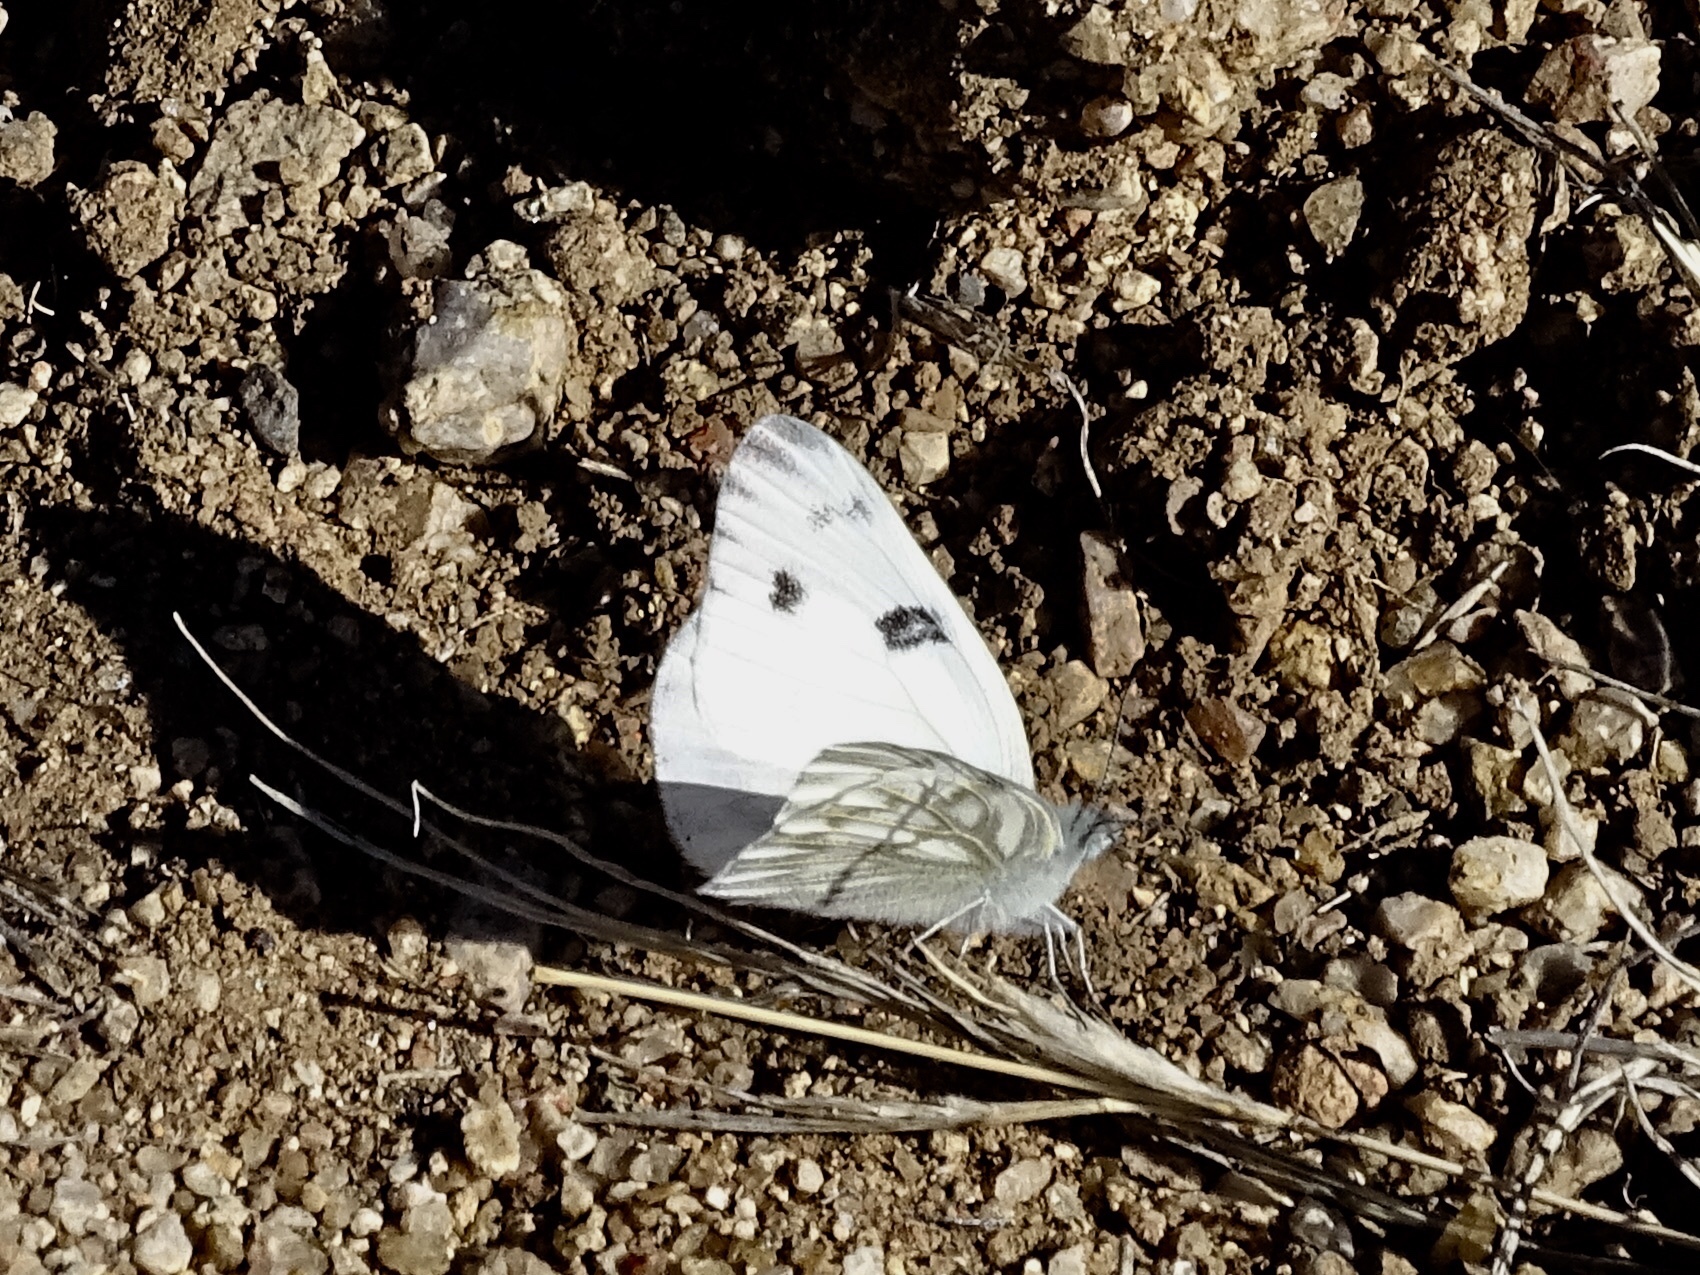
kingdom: Animalia
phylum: Arthropoda
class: Insecta
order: Lepidoptera
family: Pieridae
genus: Pontia
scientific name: Pontia protodice
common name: Checkered white
